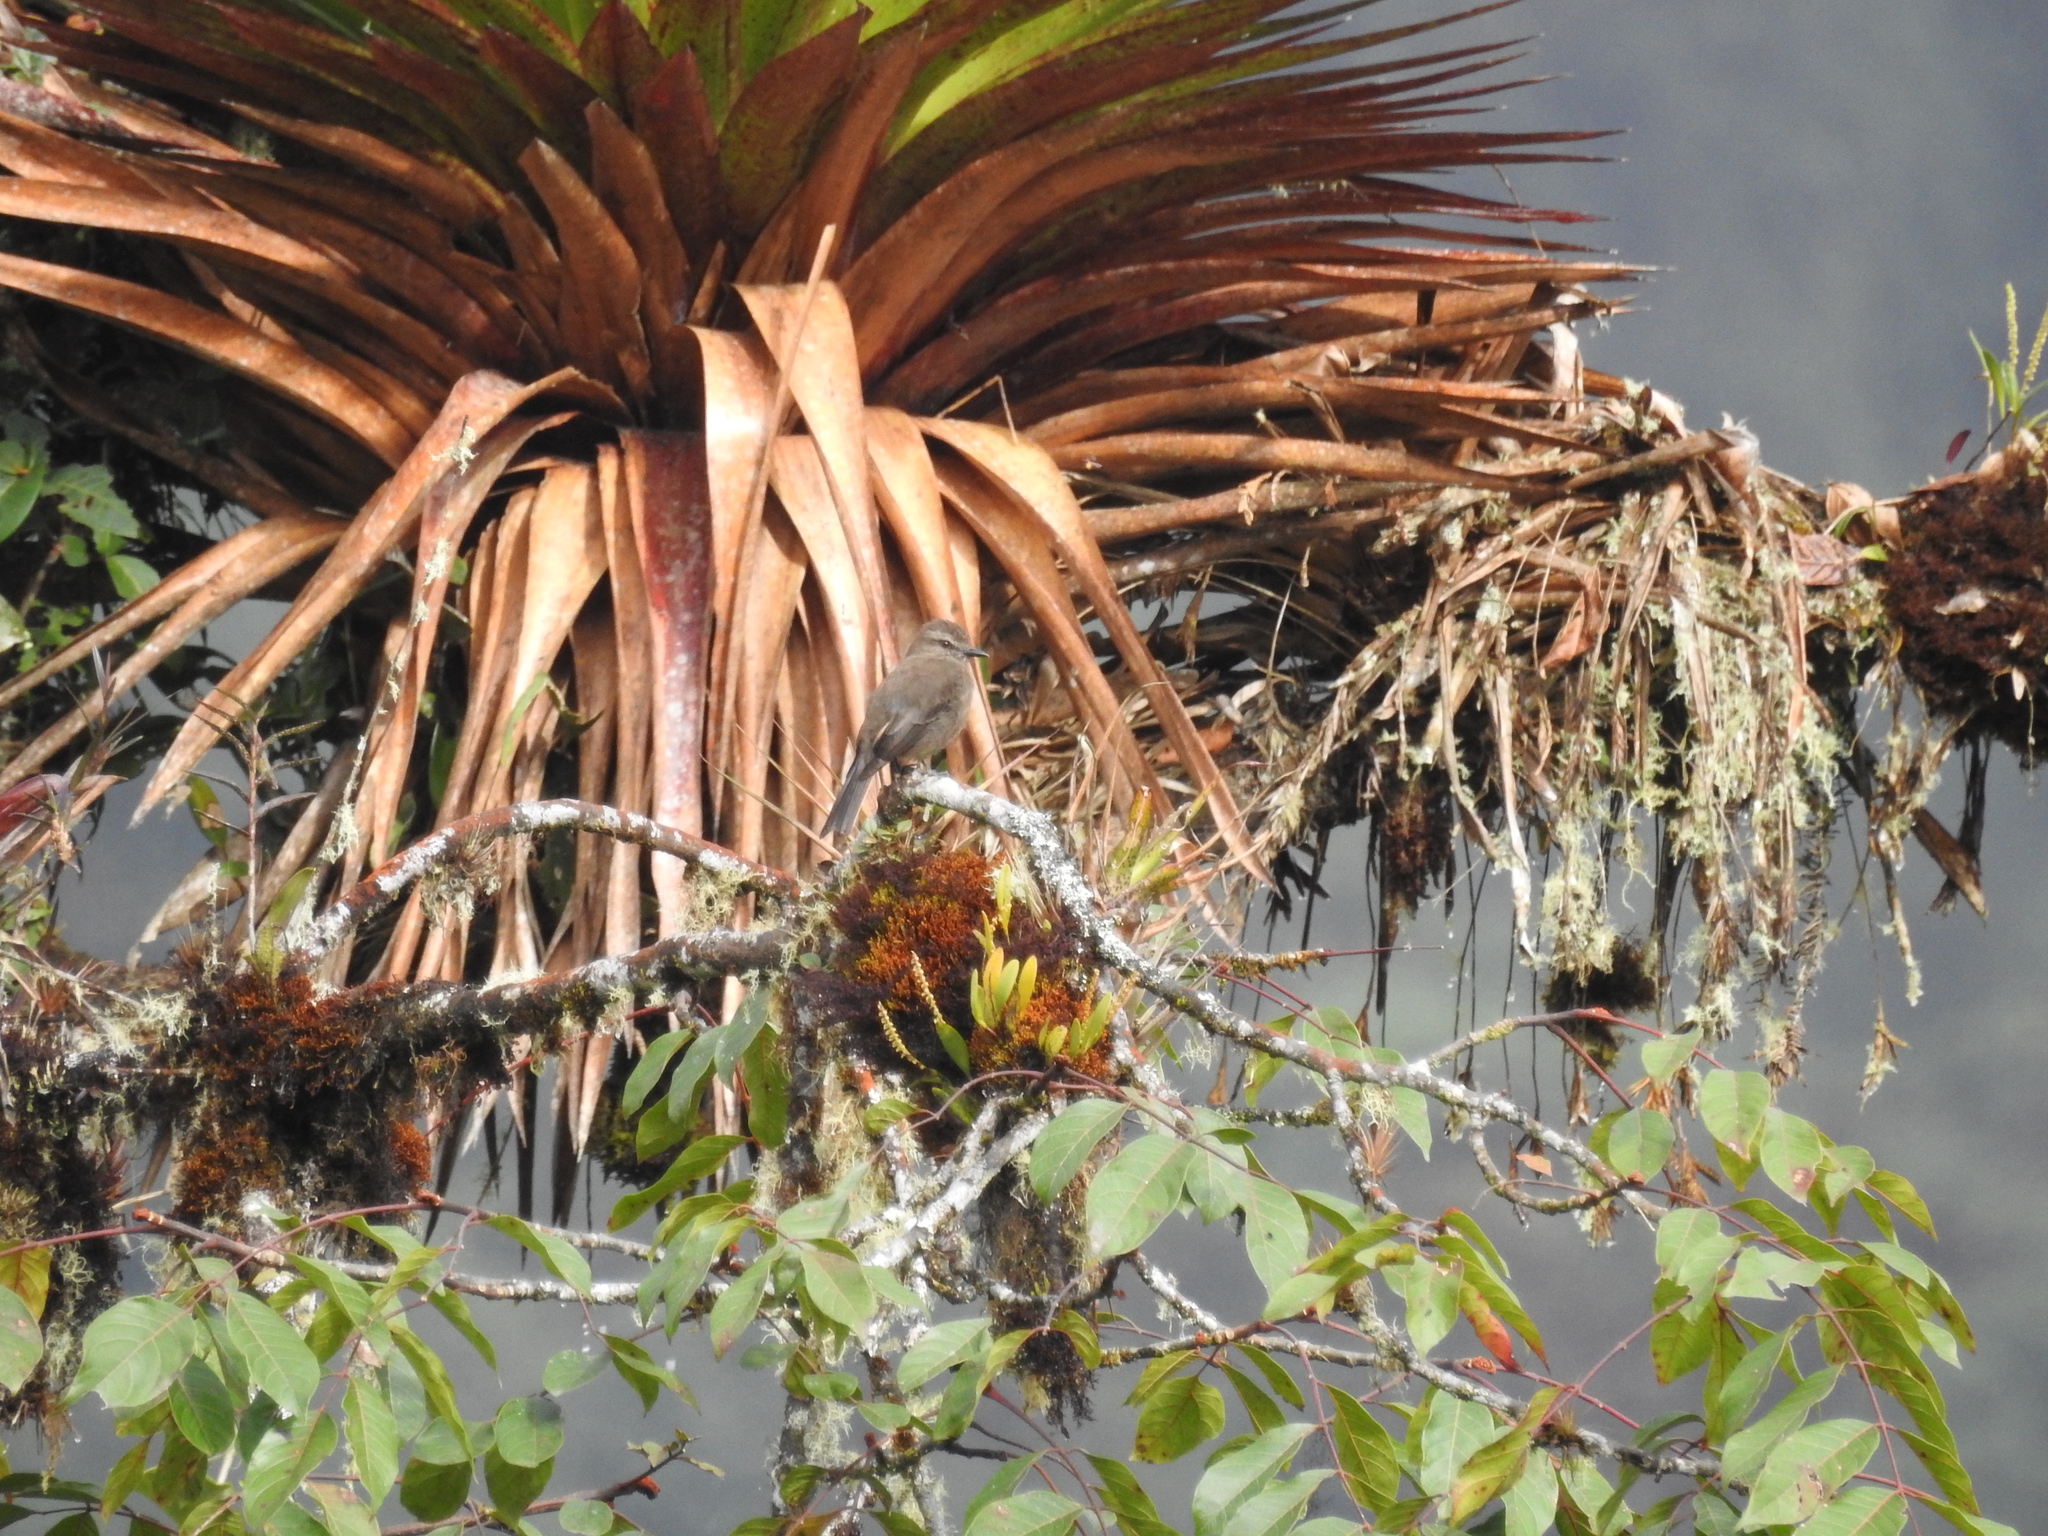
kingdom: Animalia
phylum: Chordata
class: Aves
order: Passeriformes
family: Tyrannidae
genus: Myiotheretes
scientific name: Myiotheretes fumigatus
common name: Smoky bush tyrant
